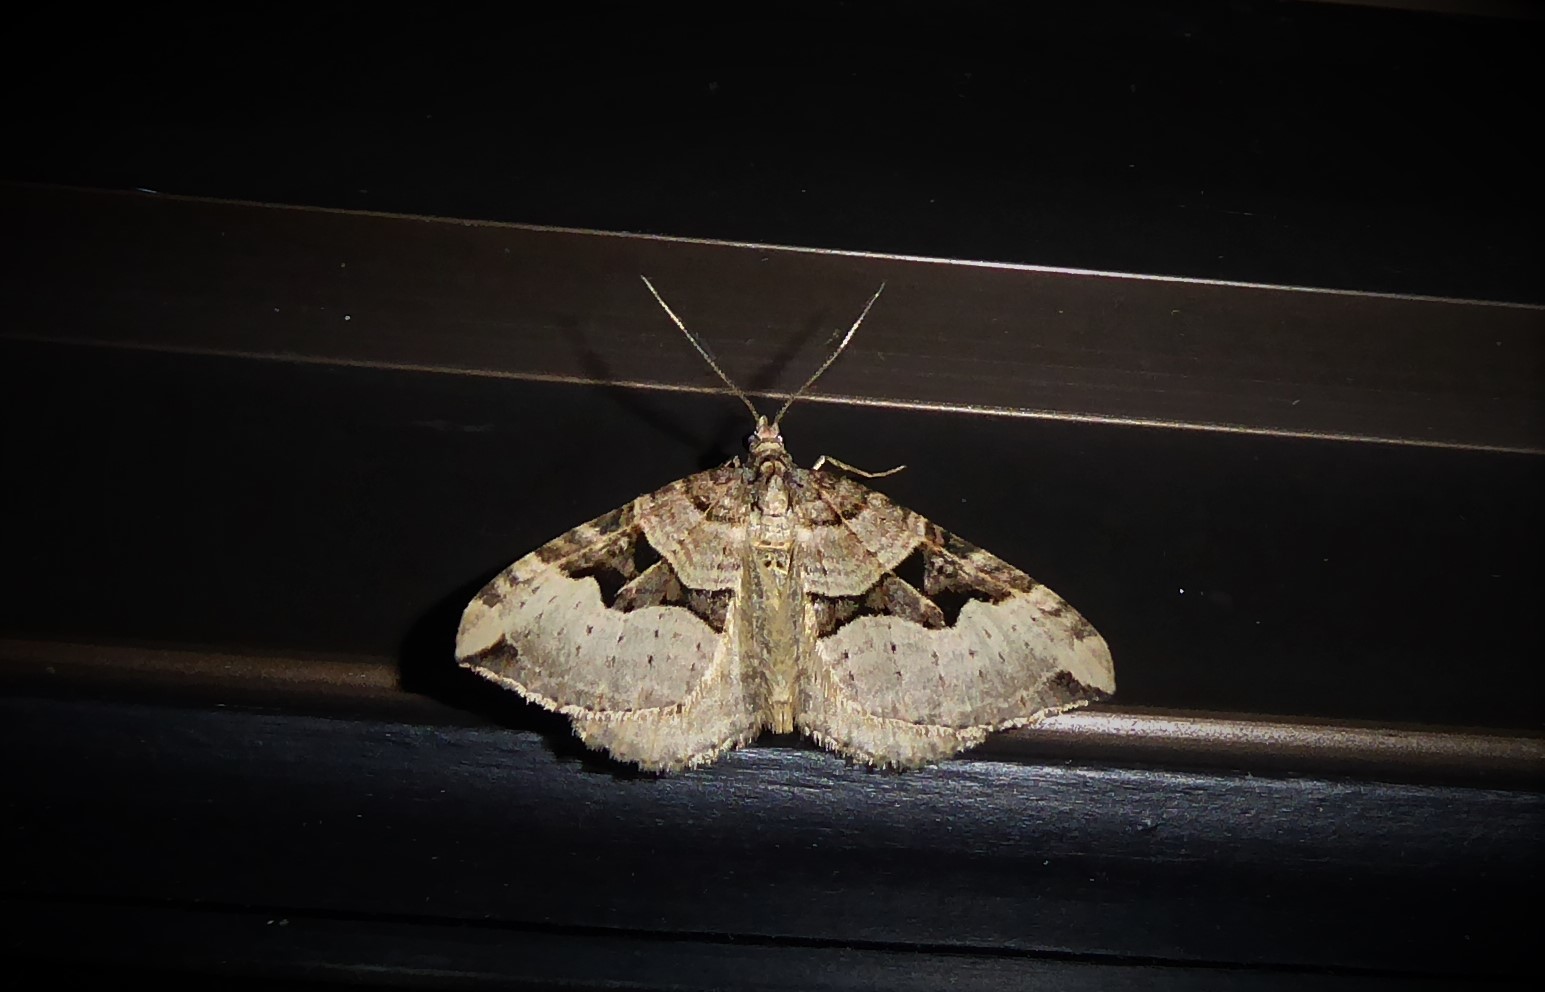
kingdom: Animalia
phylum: Arthropoda
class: Insecta
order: Lepidoptera
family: Geometridae
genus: Xanthorhoe
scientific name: Xanthorhoe semifissata
